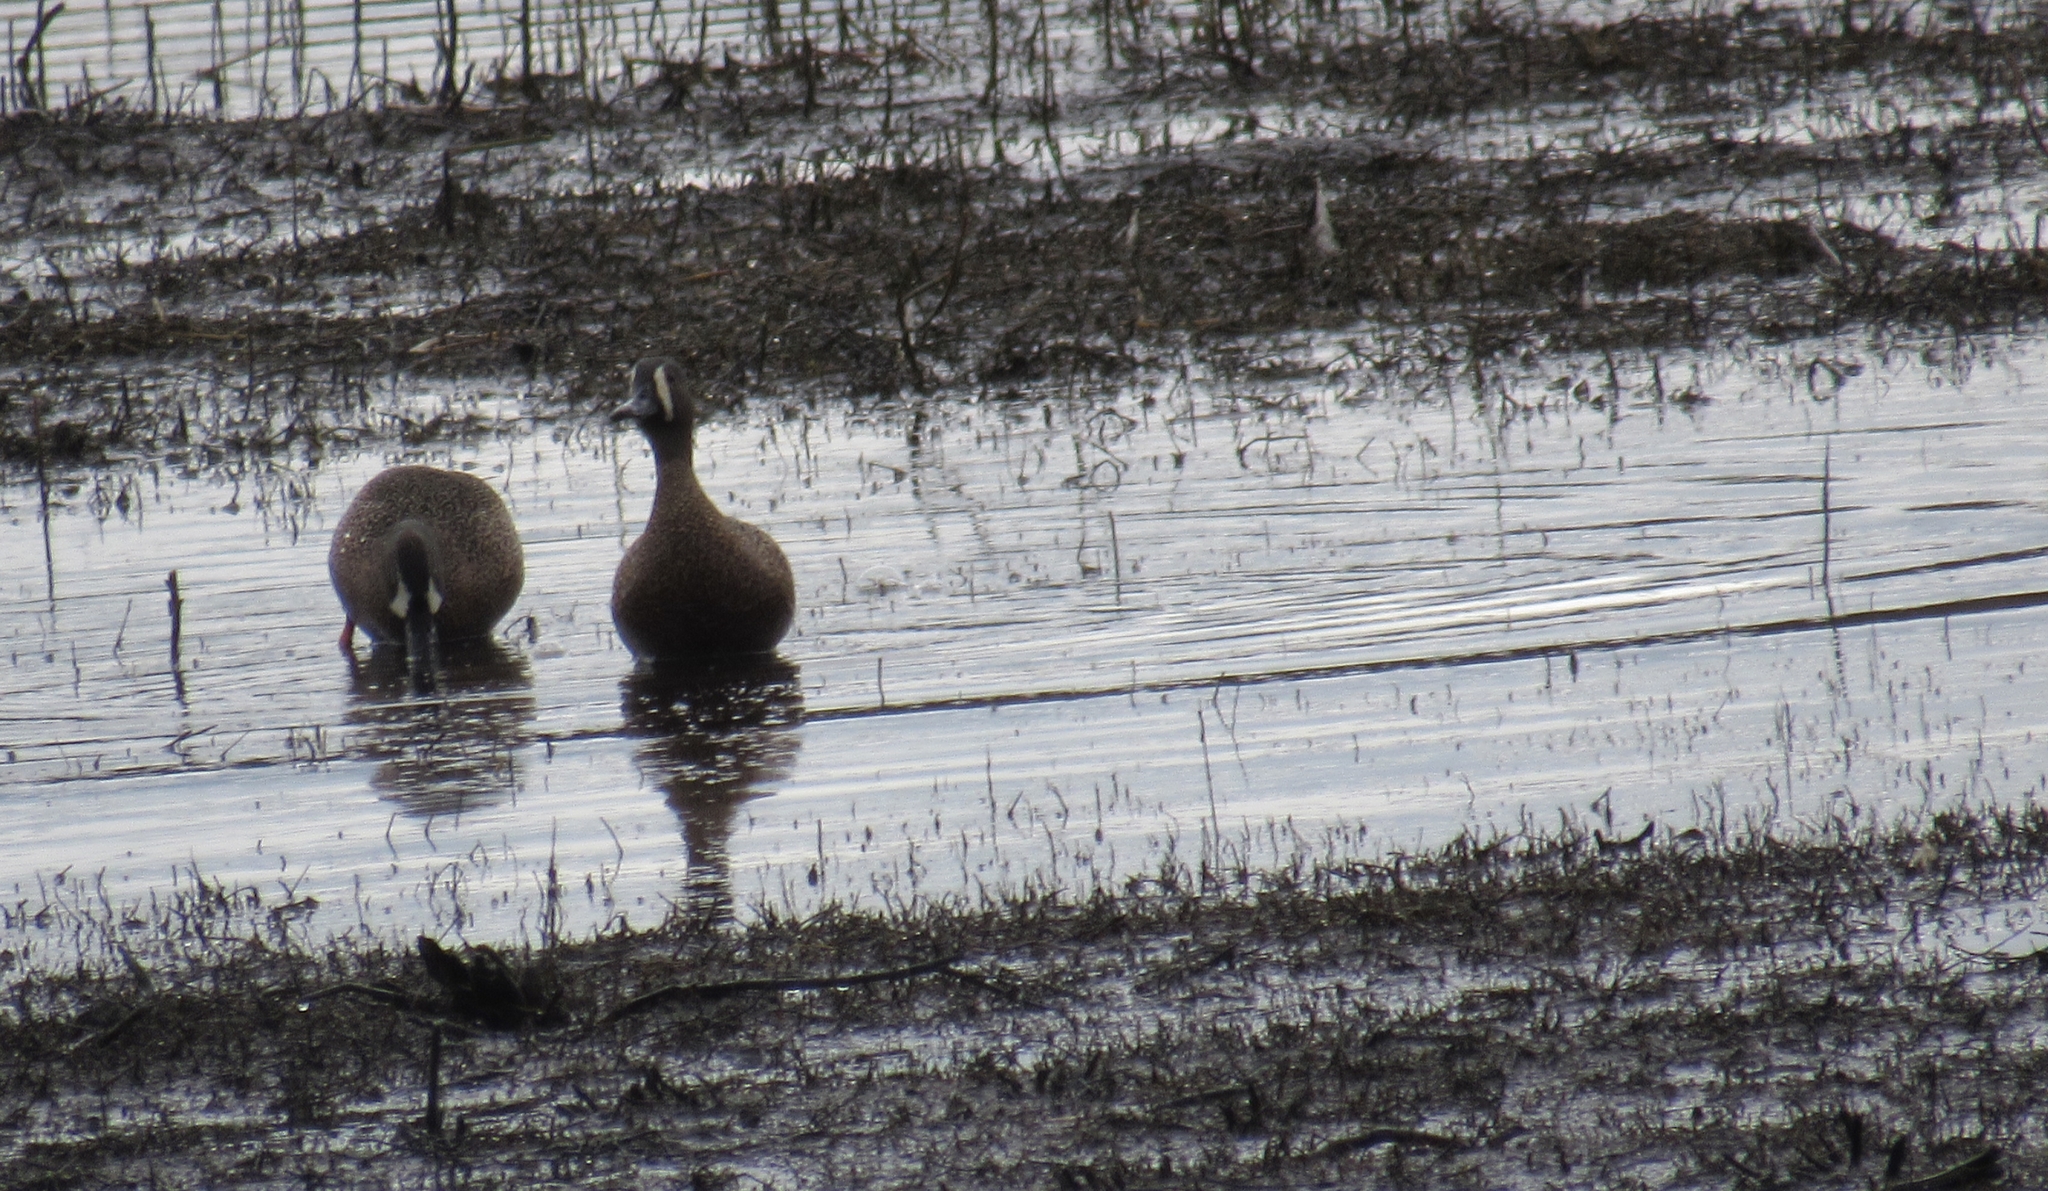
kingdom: Animalia
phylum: Chordata
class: Aves
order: Anseriformes
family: Anatidae
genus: Spatula
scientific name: Spatula discors
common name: Blue-winged teal
